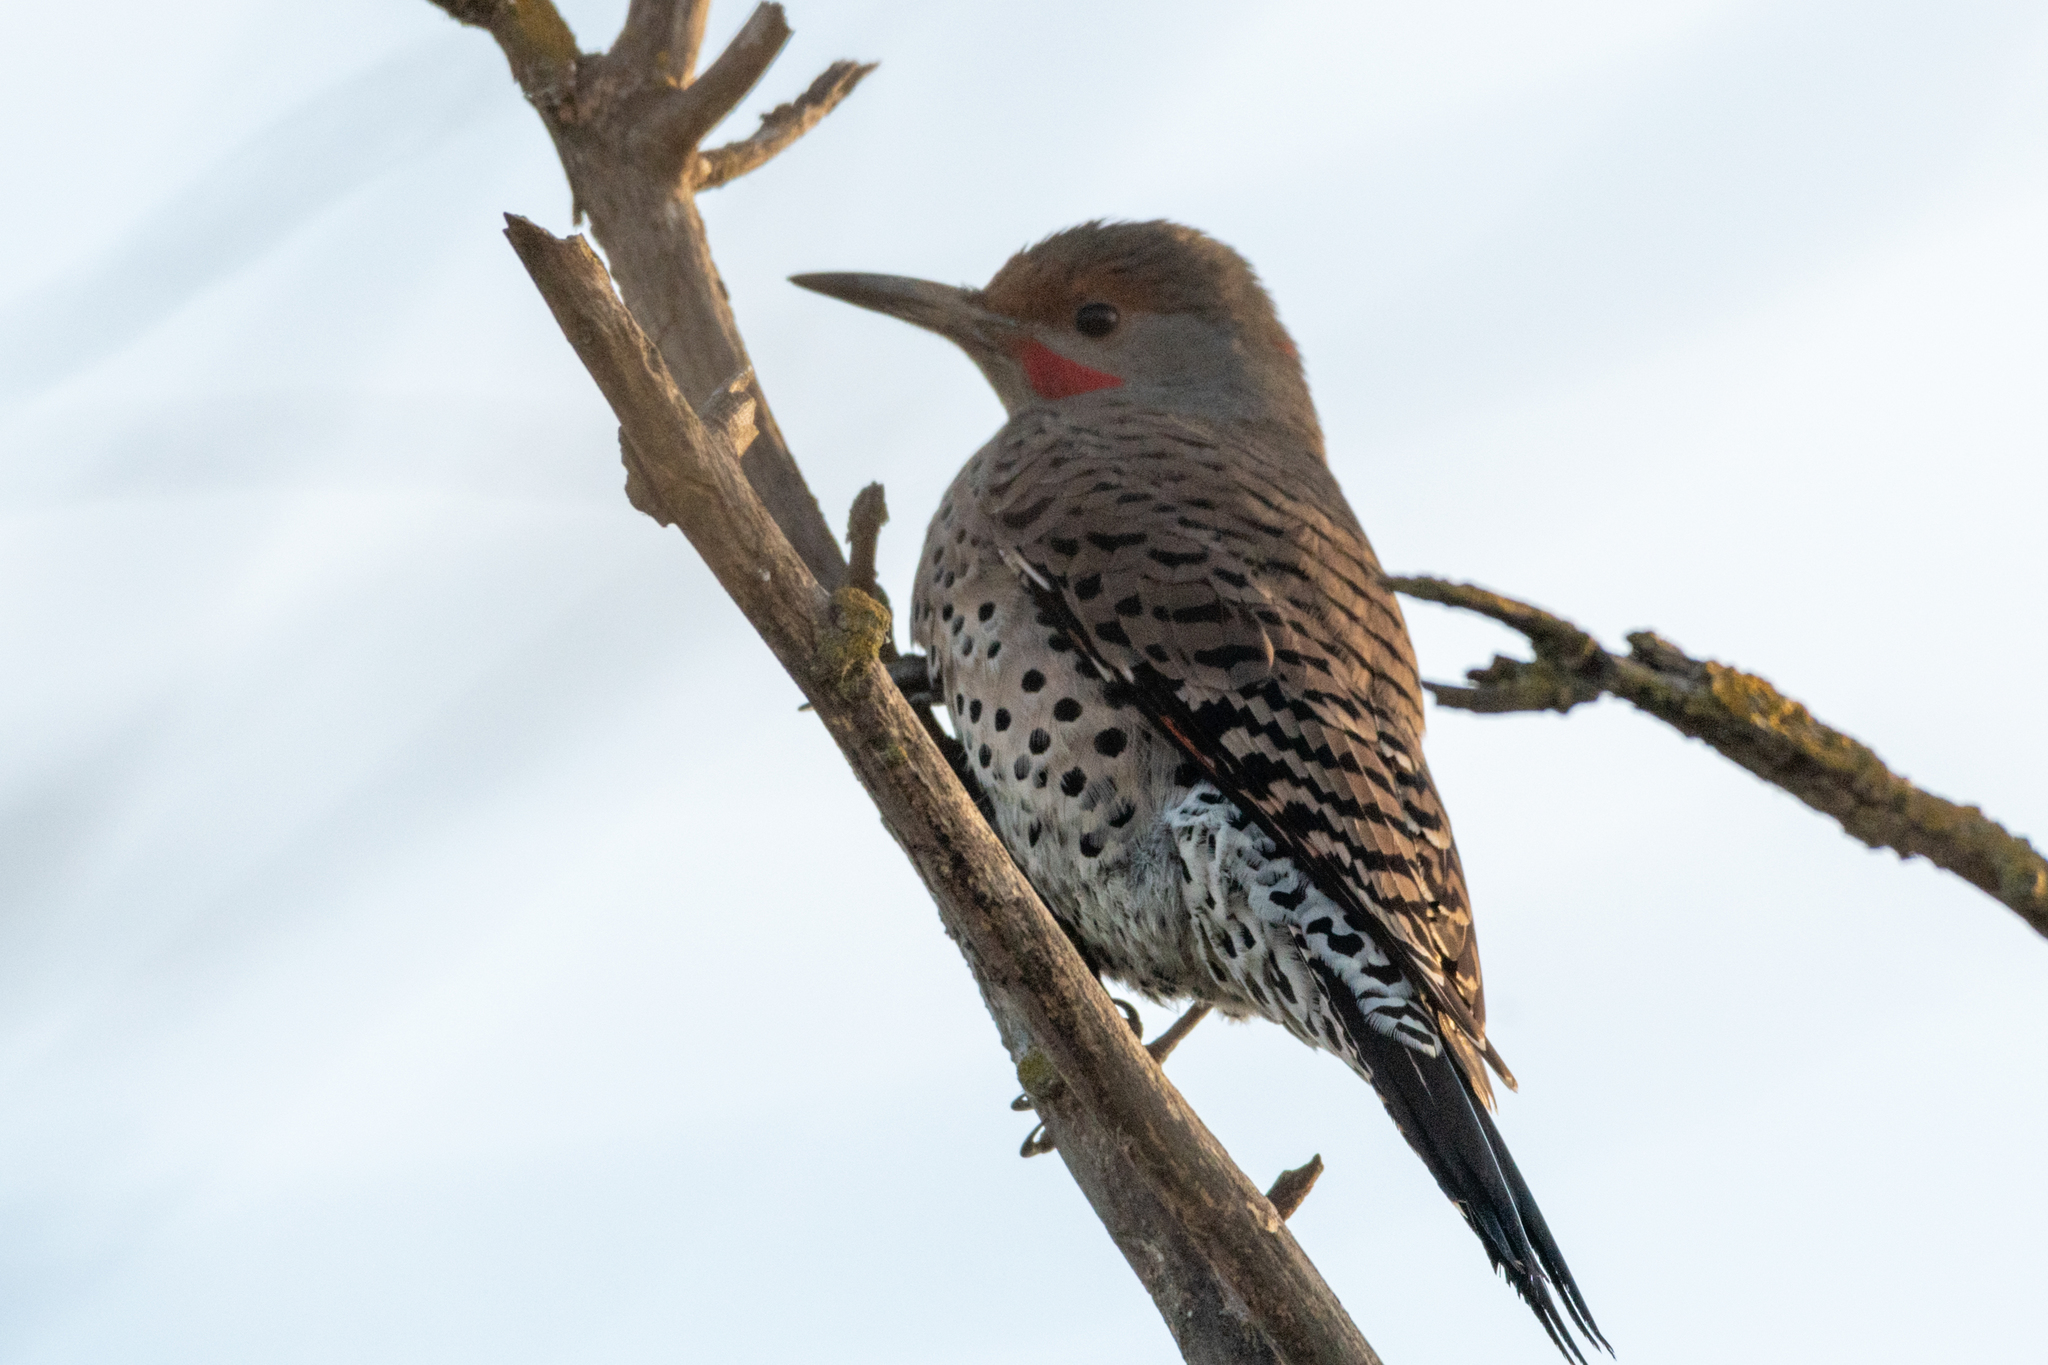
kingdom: Animalia
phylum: Chordata
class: Aves
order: Piciformes
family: Picidae
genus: Colaptes
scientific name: Colaptes auratus
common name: Northern flicker
